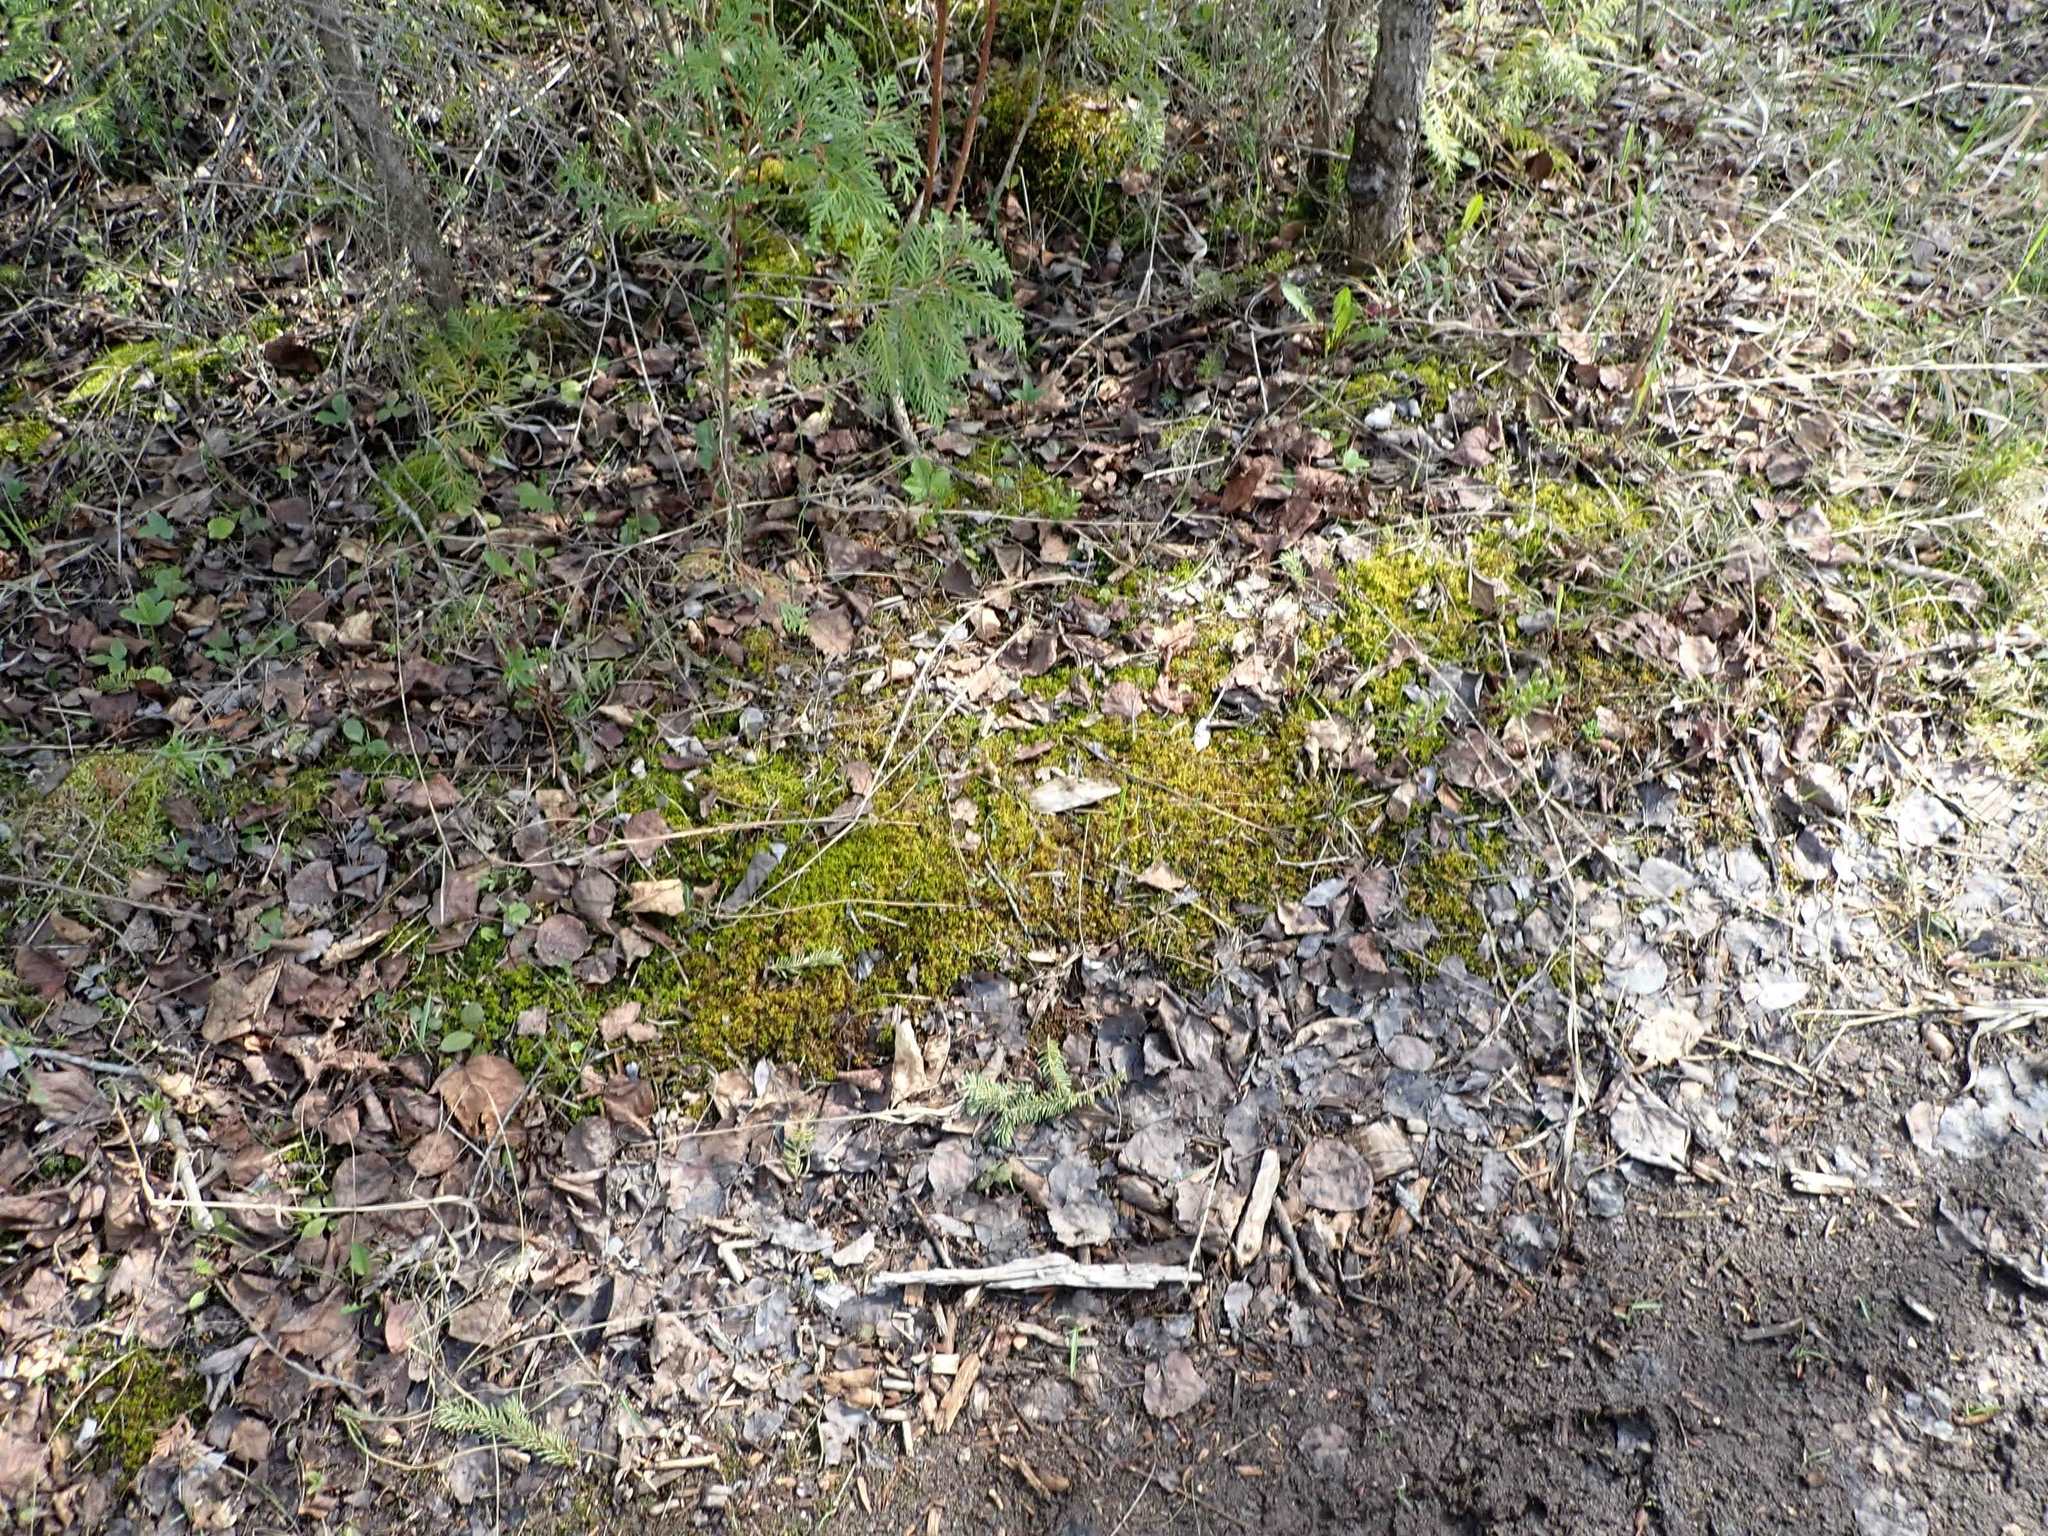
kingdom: Plantae
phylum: Bryophyta
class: Bryopsida
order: Hypnales
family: Thuidiaceae
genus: Abietinella
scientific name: Abietinella abietina
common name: Wiry fern moss
